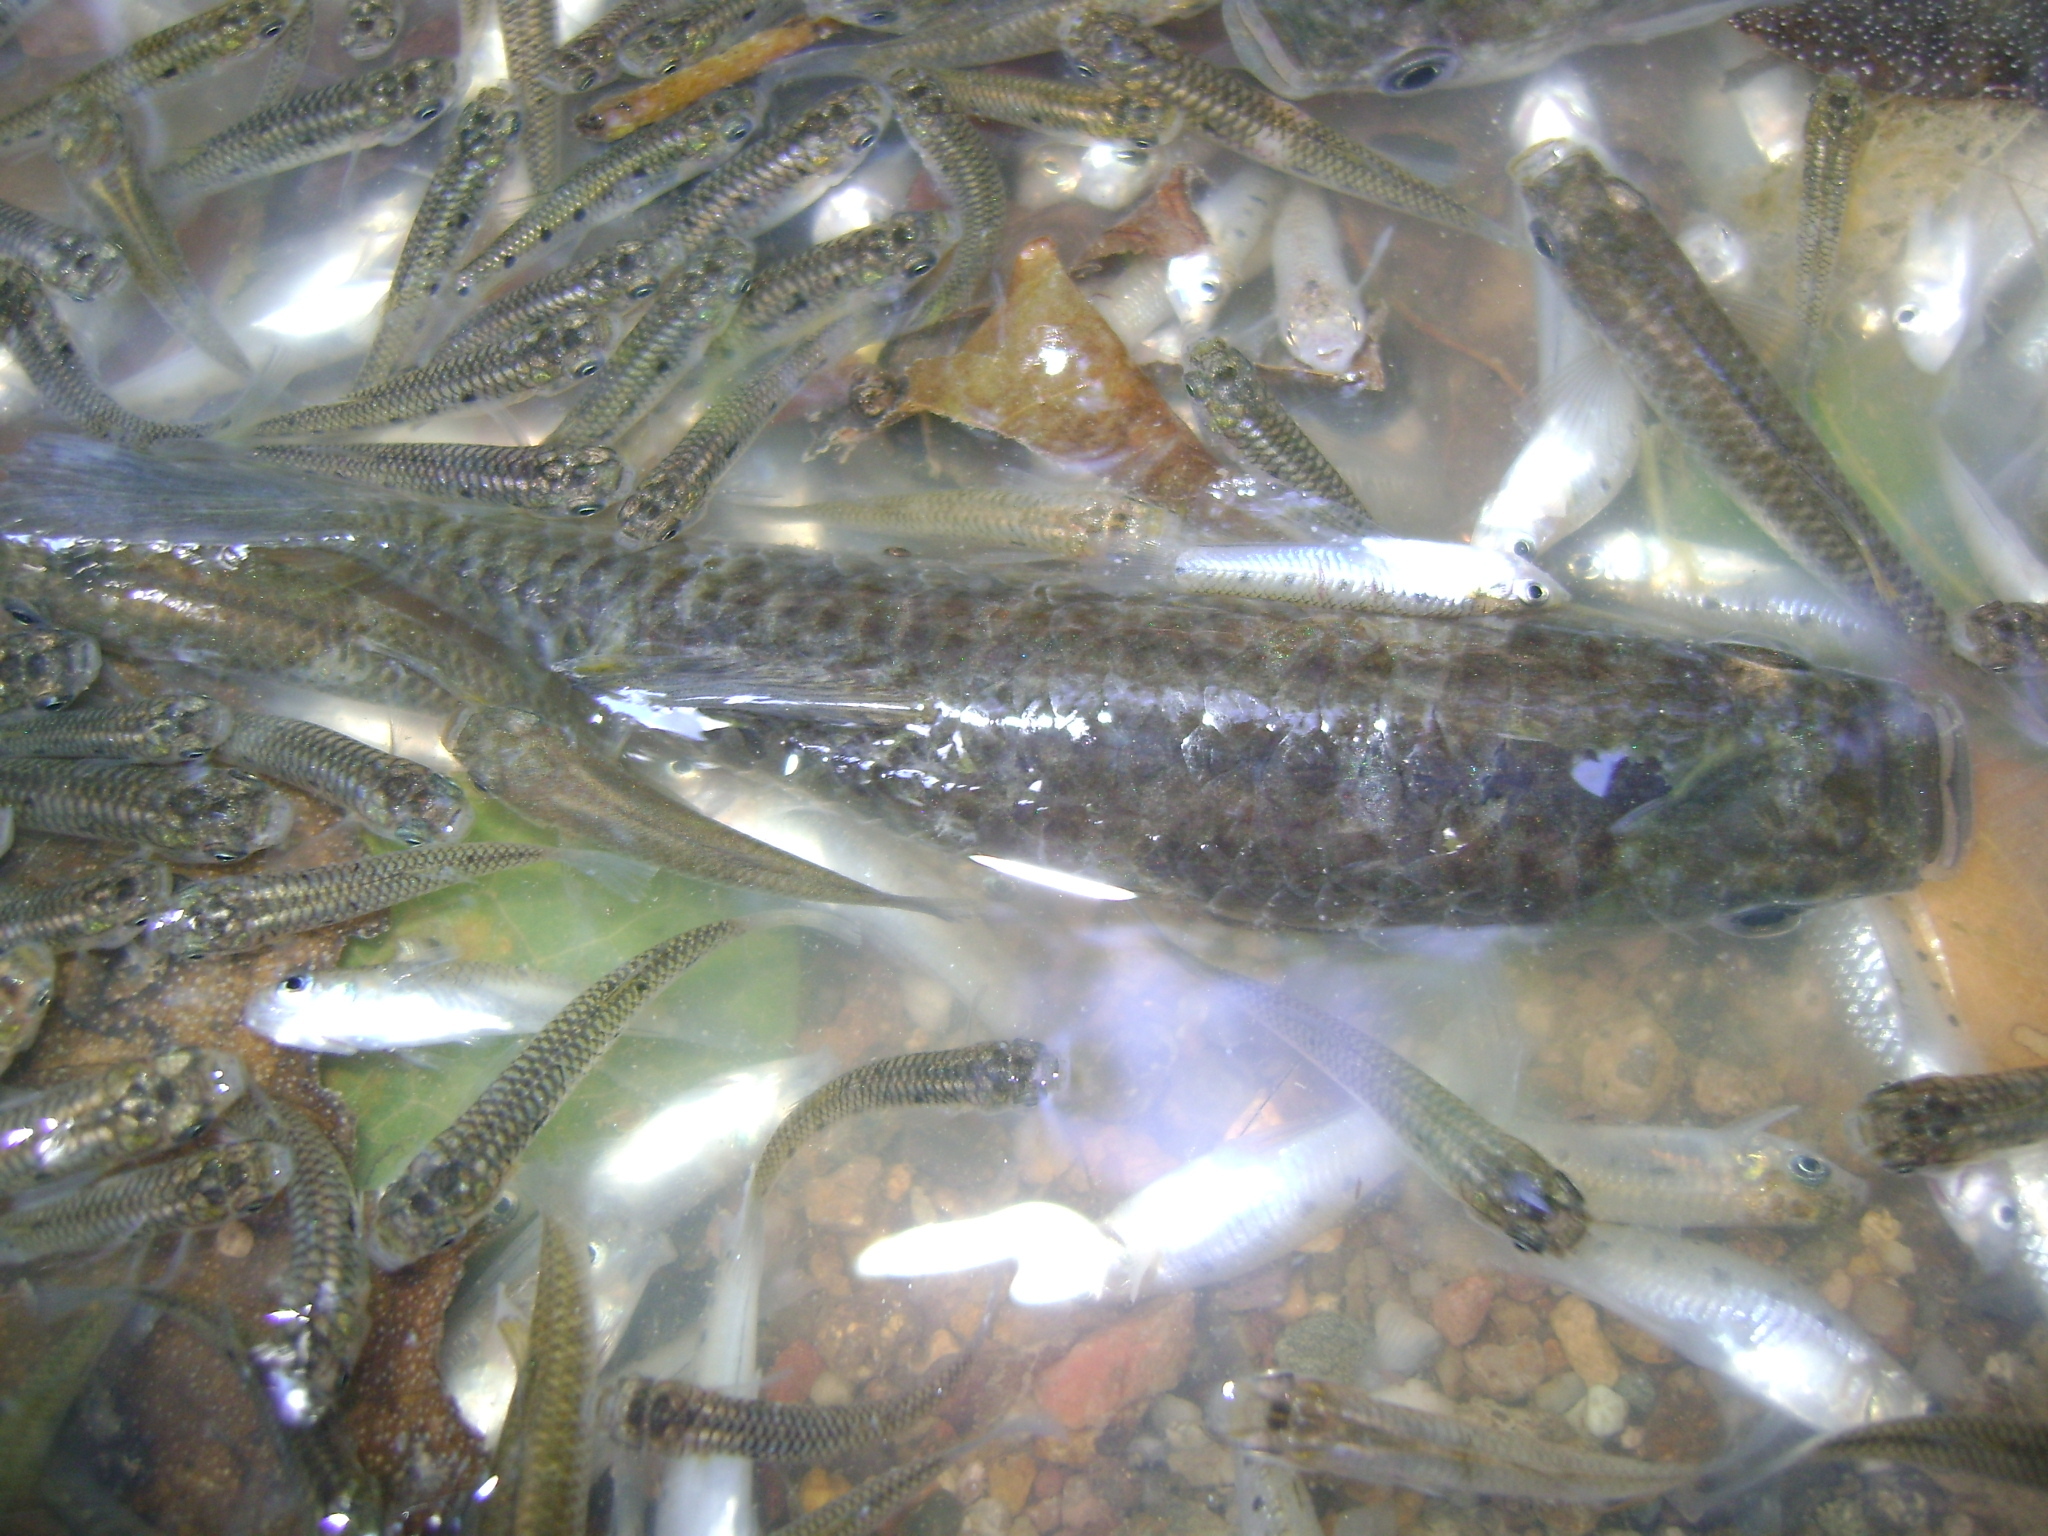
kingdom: Animalia
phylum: Chordata
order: Cyprinodontiformes
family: Poeciliidae
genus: Poecilia
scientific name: Poecilia sphenops
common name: Molly
